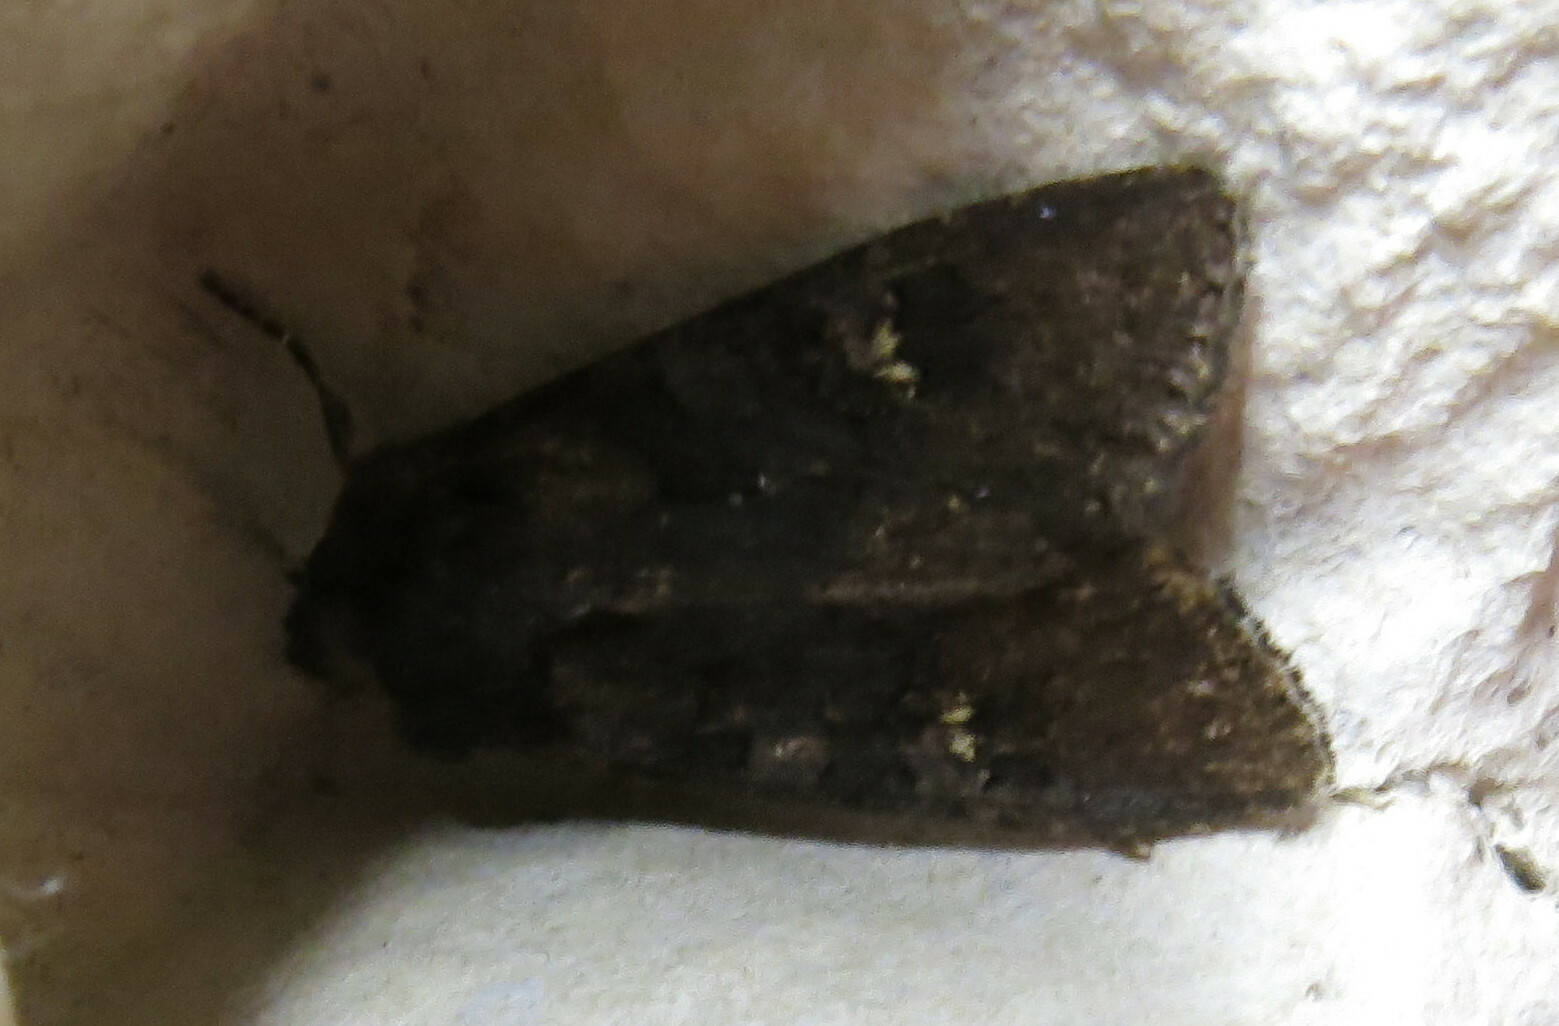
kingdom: Animalia
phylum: Arthropoda
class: Insecta
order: Lepidoptera
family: Noctuidae
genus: Aporophyla
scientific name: Aporophyla nigra
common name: Black rustic
